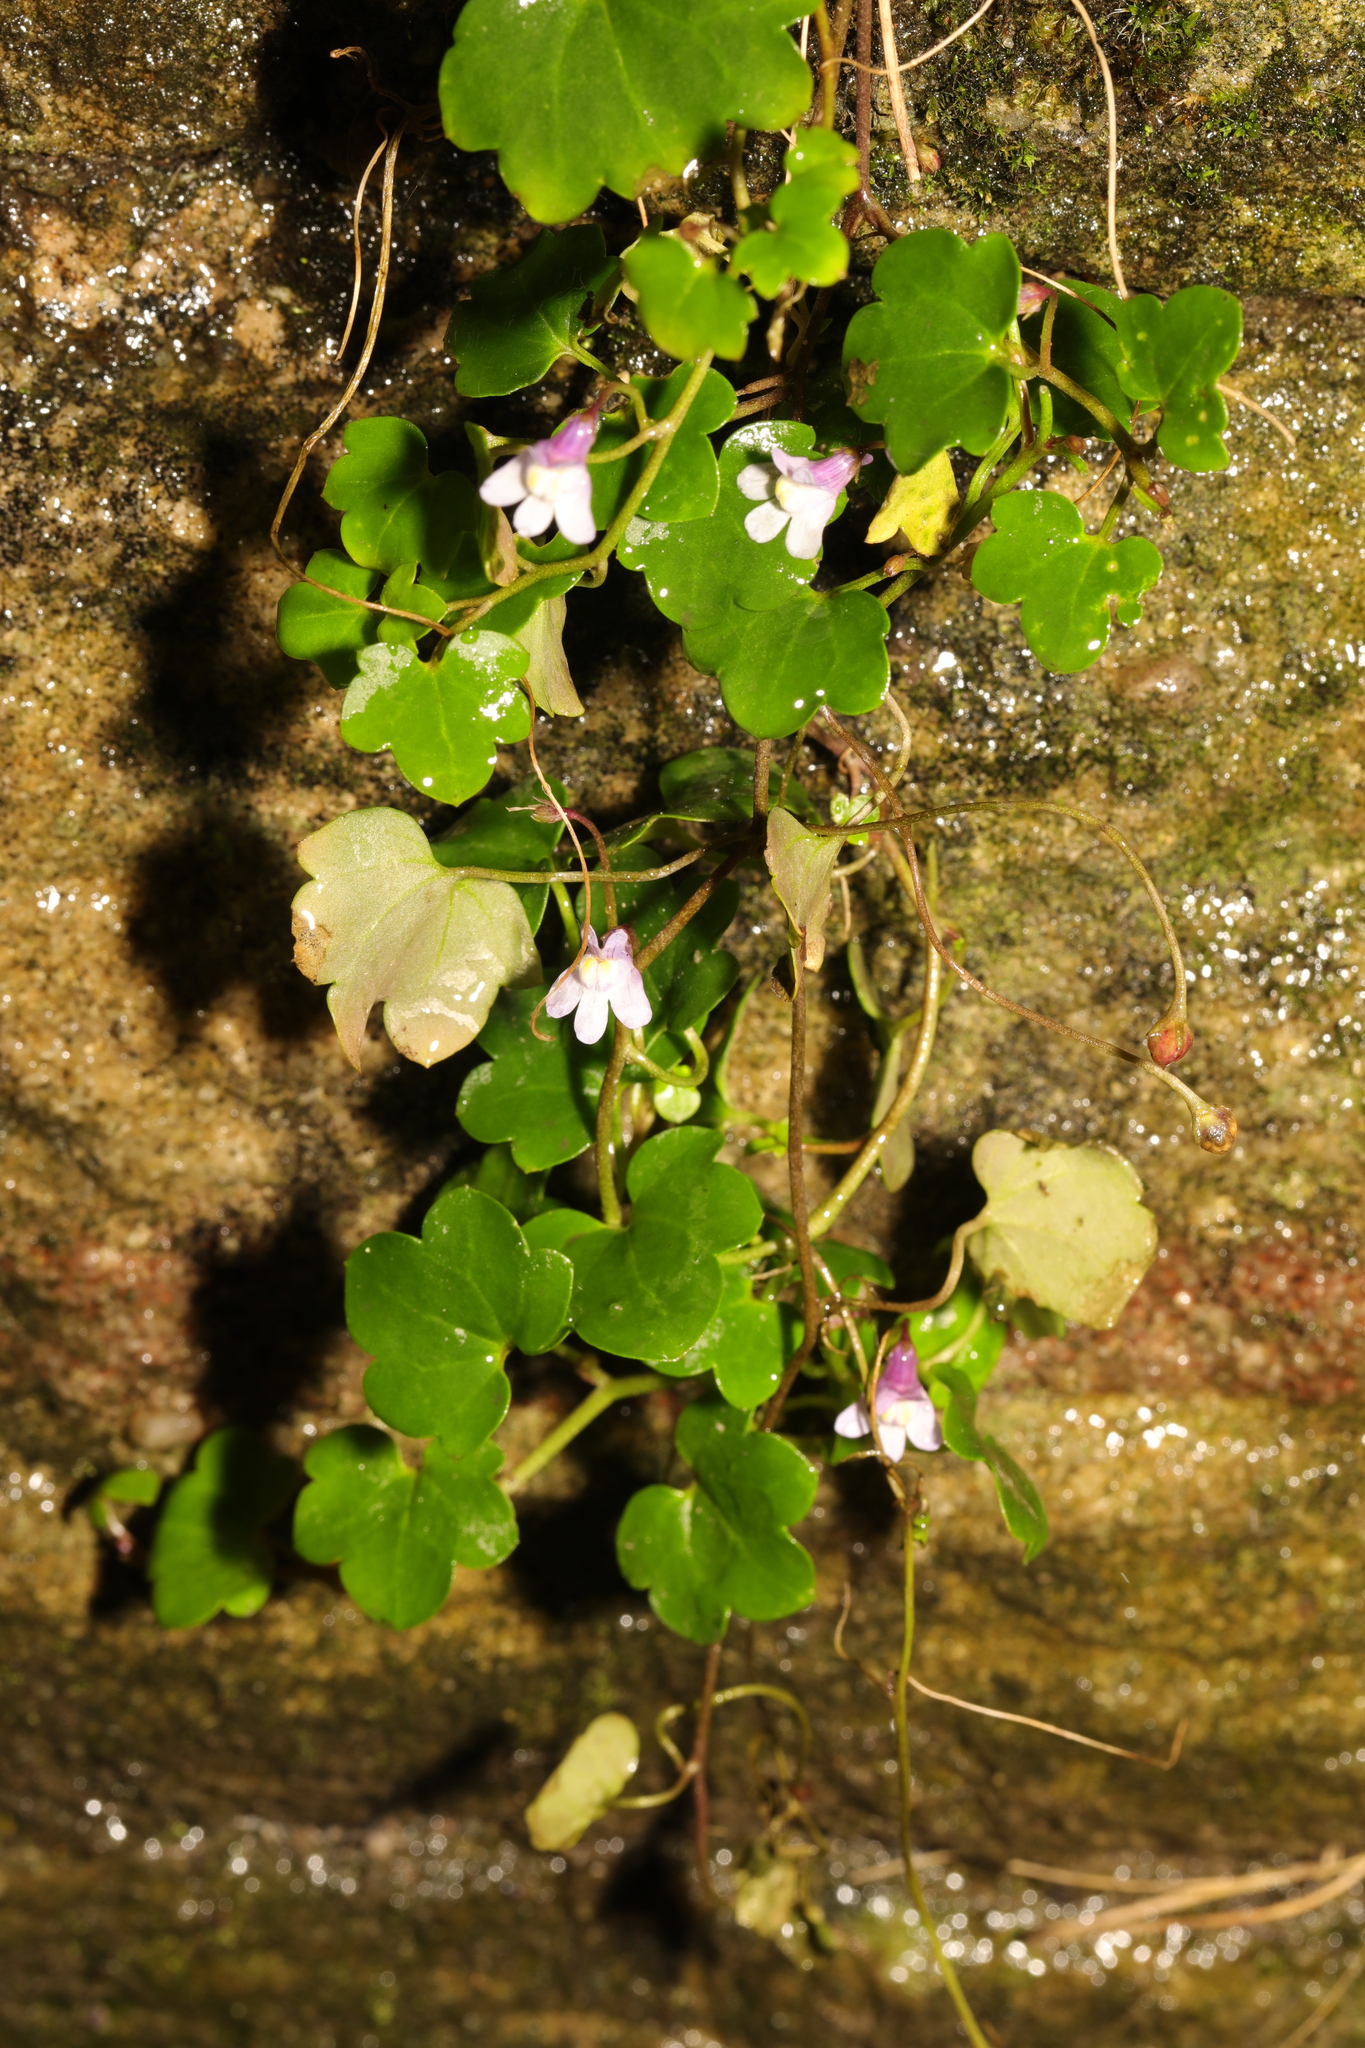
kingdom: Plantae
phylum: Tracheophyta
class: Magnoliopsida
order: Lamiales
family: Plantaginaceae
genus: Cymbalaria
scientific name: Cymbalaria muralis
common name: Ivy-leaved toadflax
